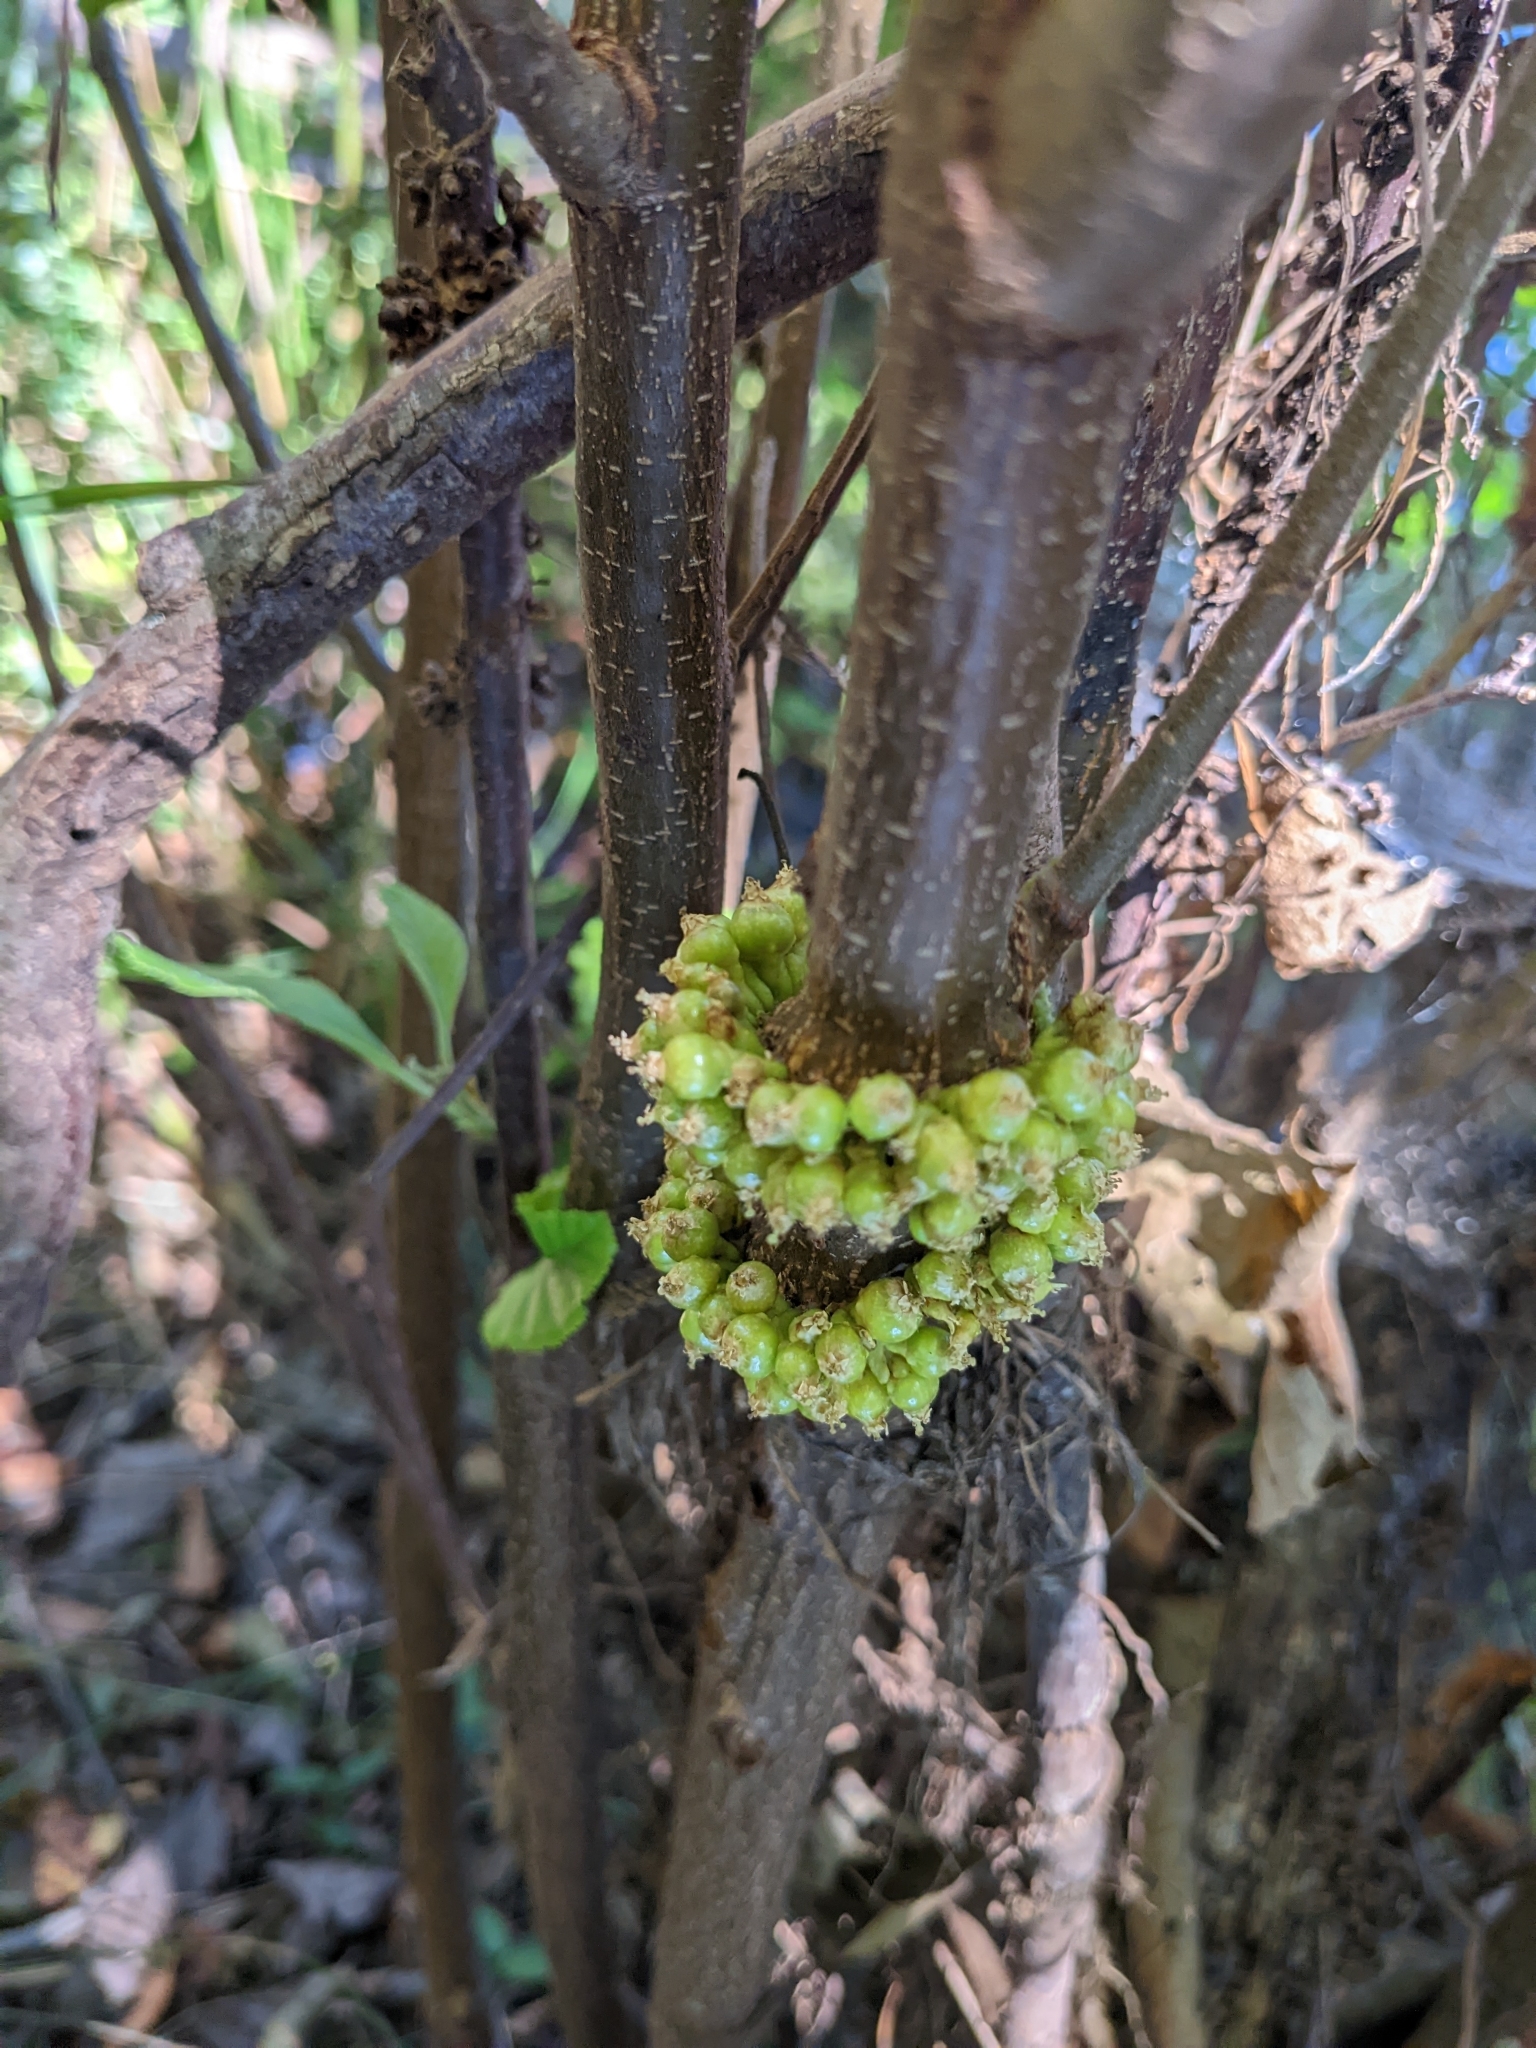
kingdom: Plantae
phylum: Tracheophyta
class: Magnoliopsida
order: Solanales
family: Convolvulaceae
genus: Cuscuta
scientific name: Cuscuta compacta
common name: Compact dodder
